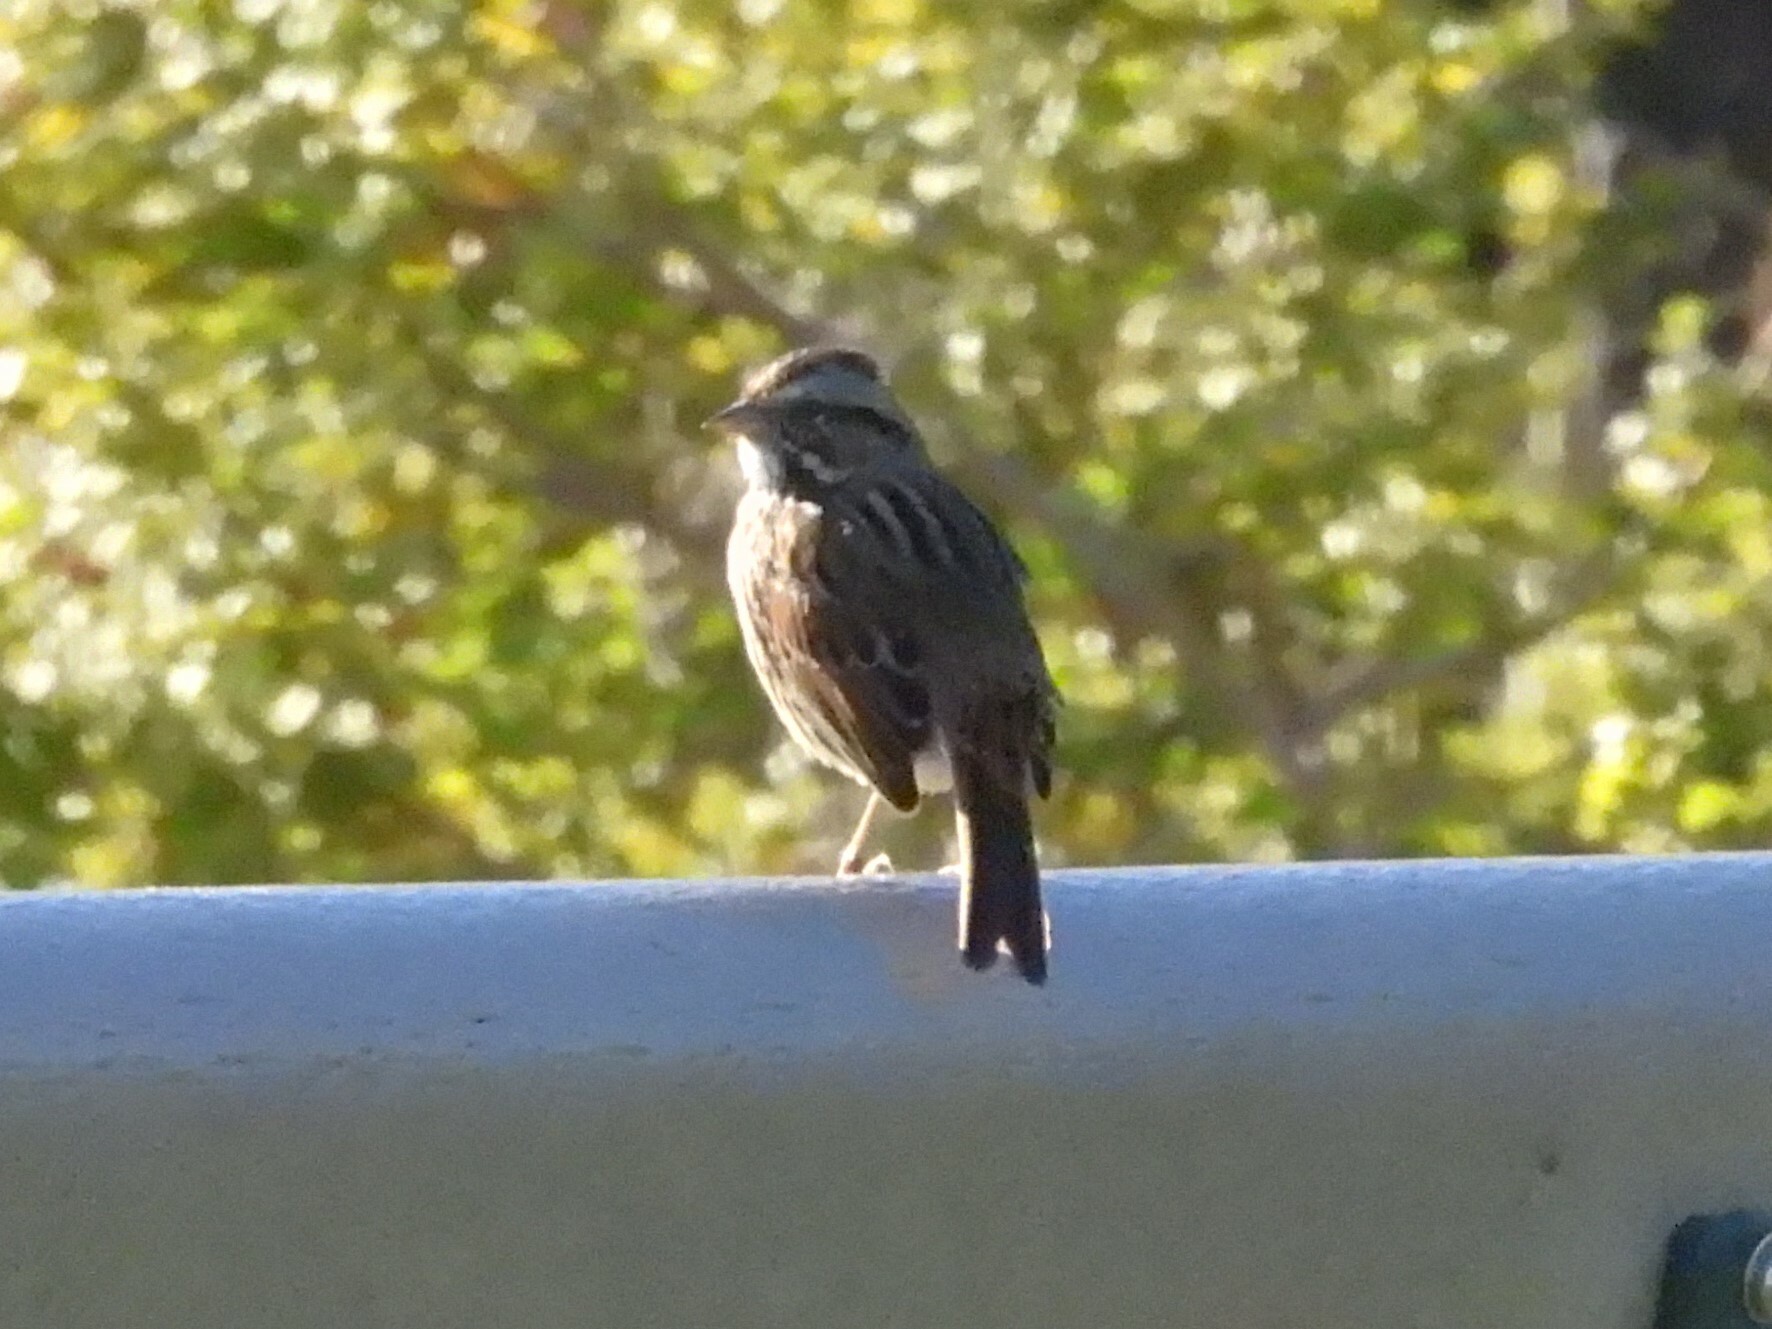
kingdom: Animalia
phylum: Chordata
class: Aves
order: Passeriformes
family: Passerellidae
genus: Melospiza
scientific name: Melospiza melodia
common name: Song sparrow
